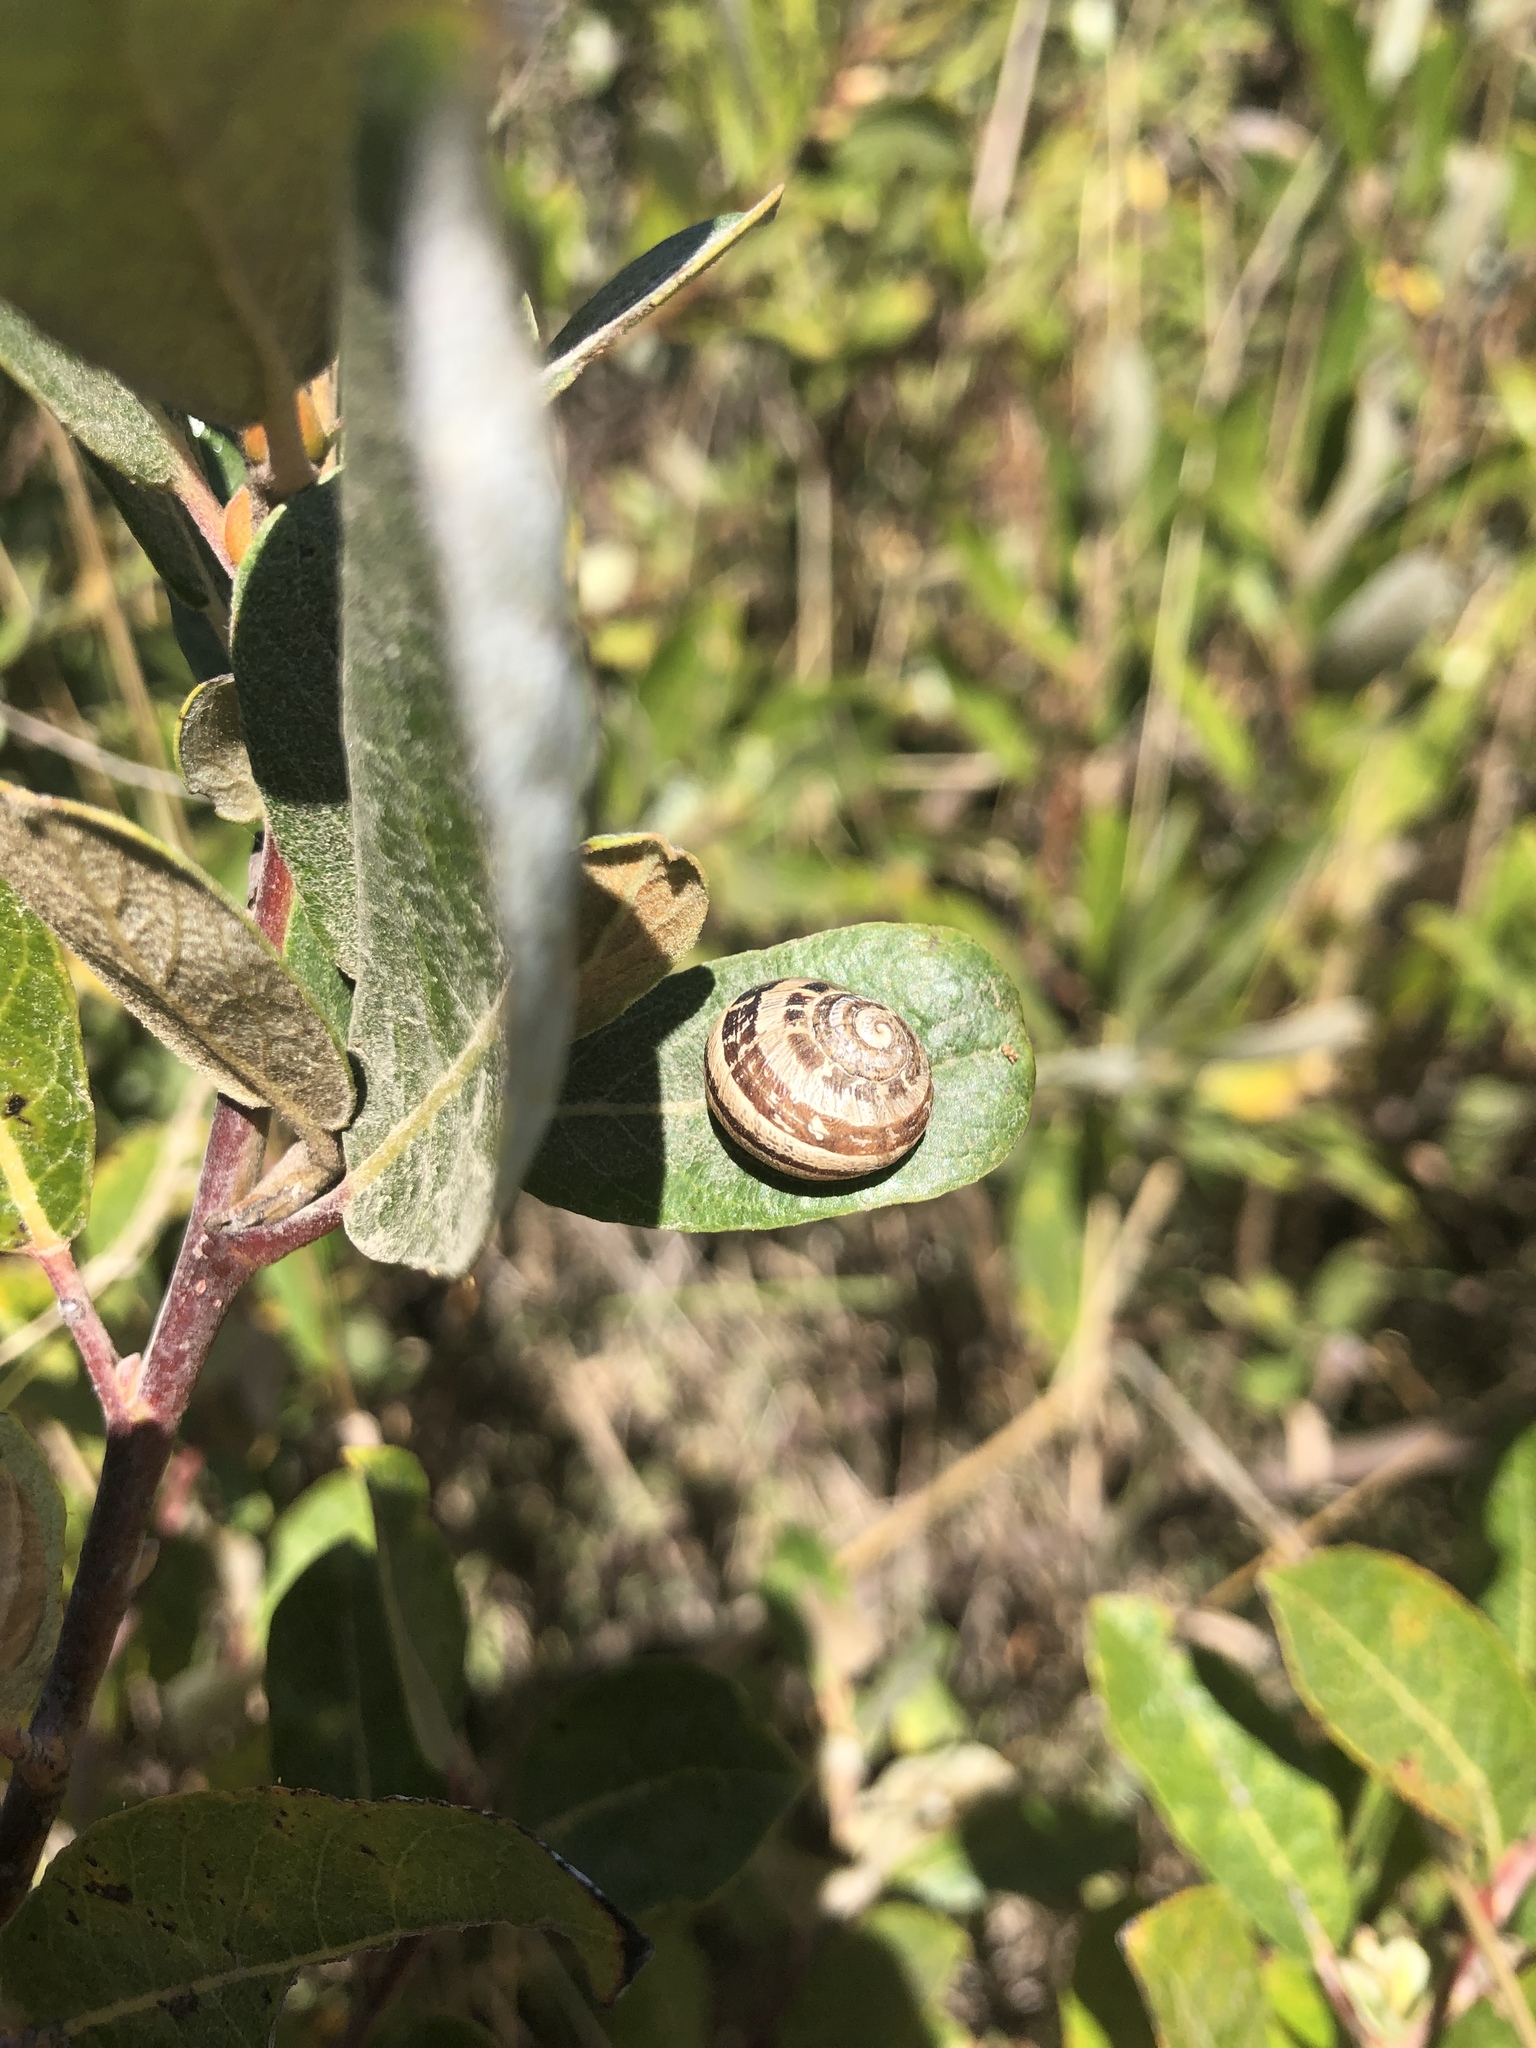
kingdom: Animalia
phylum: Mollusca
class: Gastropoda
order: Stylommatophora
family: Helicidae
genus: Cornu
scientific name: Cornu aspersum
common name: Brown garden snail
